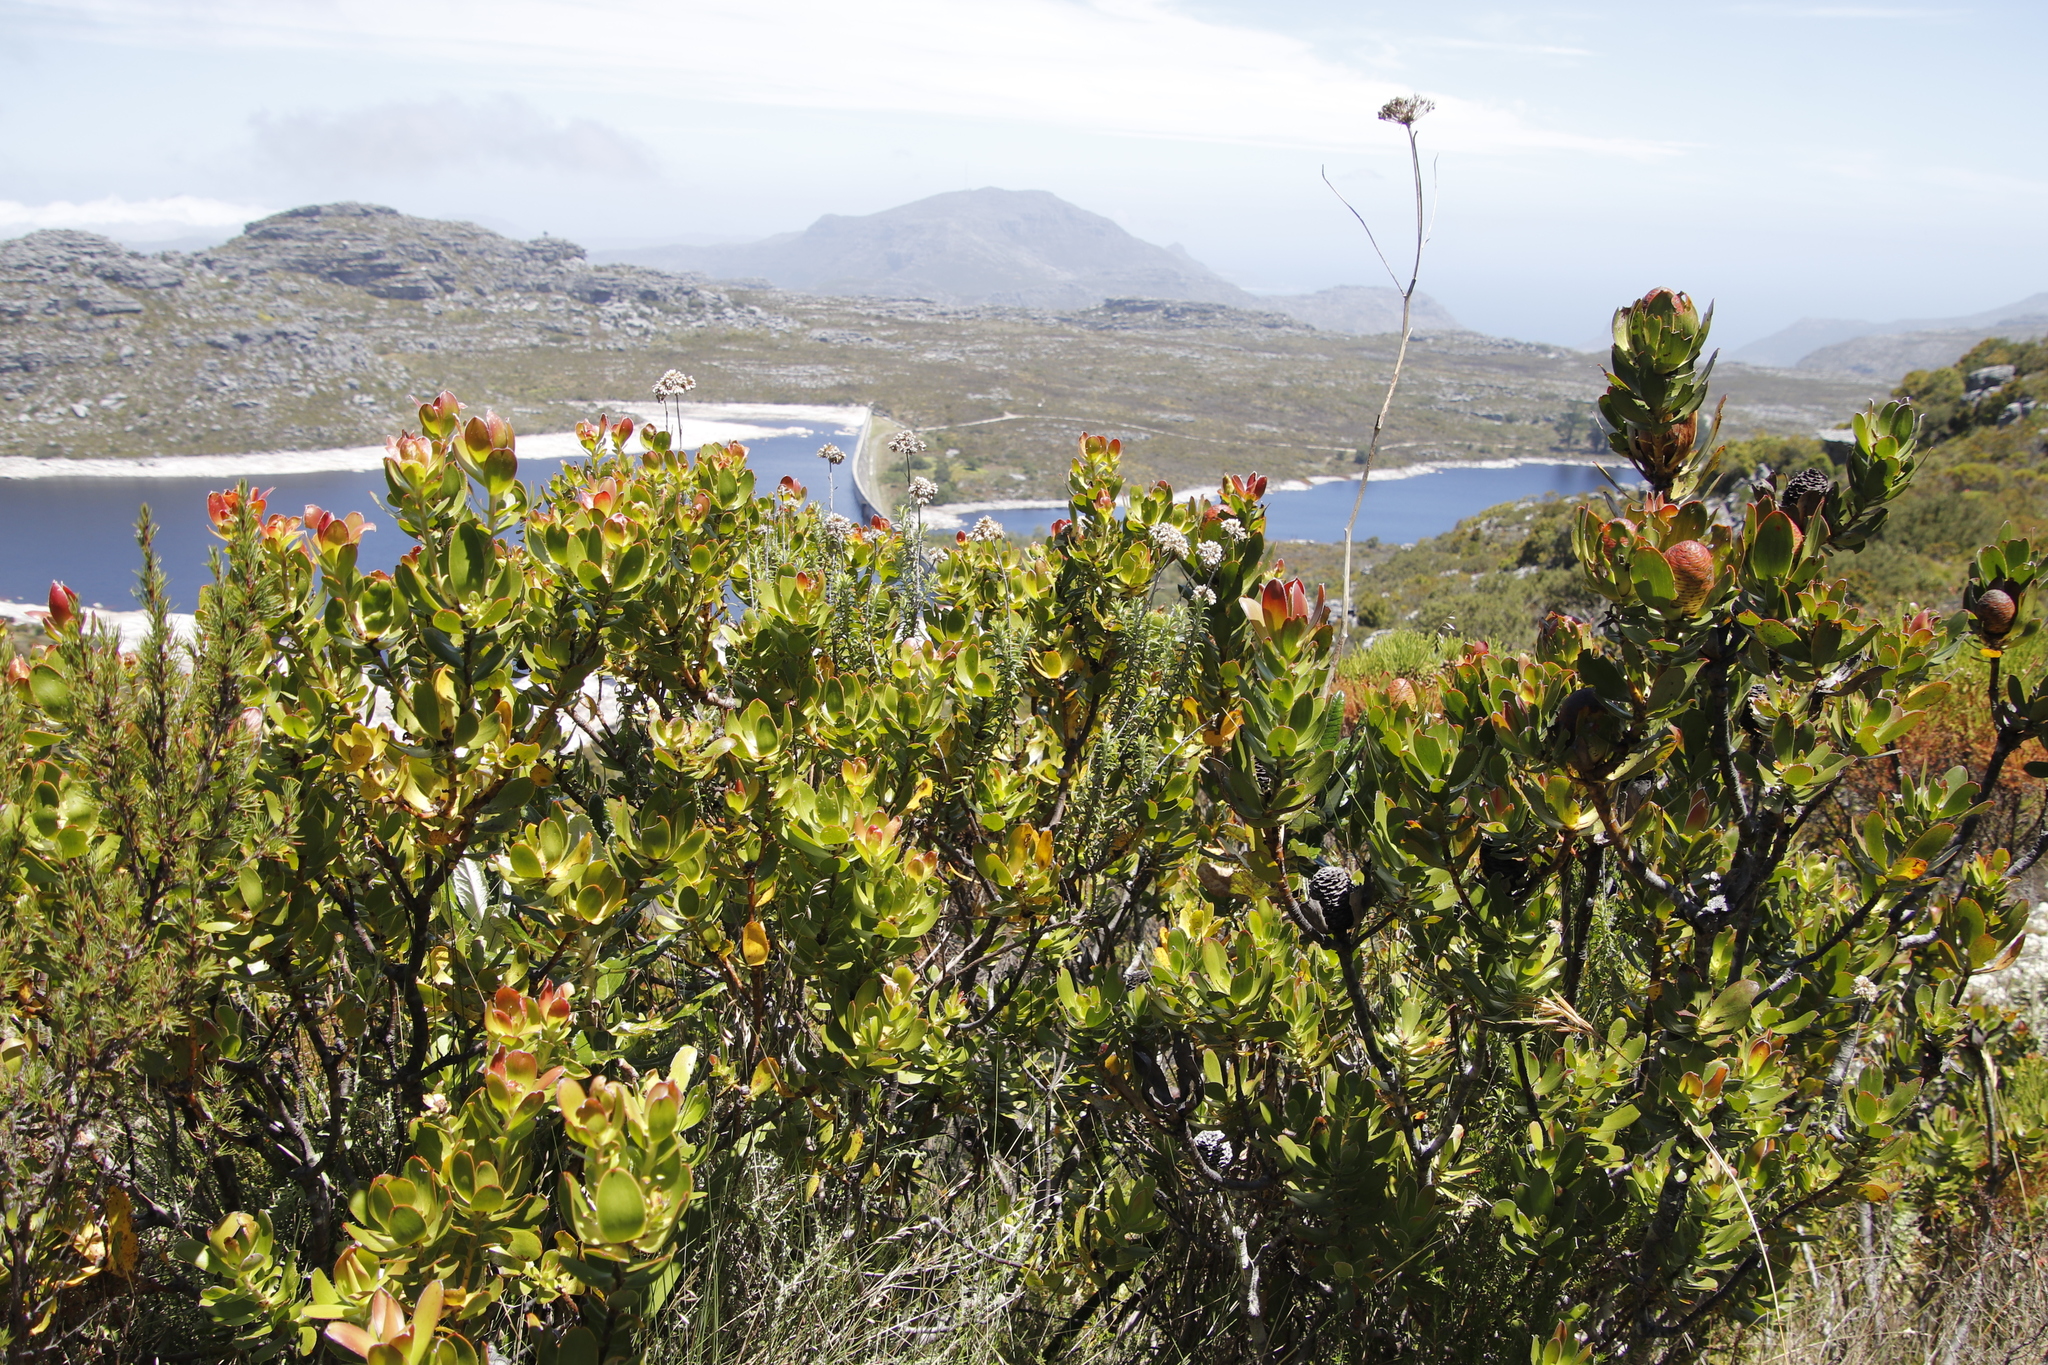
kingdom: Plantae
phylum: Tracheophyta
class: Magnoliopsida
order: Proteales
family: Proteaceae
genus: Leucadendron
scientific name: Leucadendron strobilinum
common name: Mountain rose
